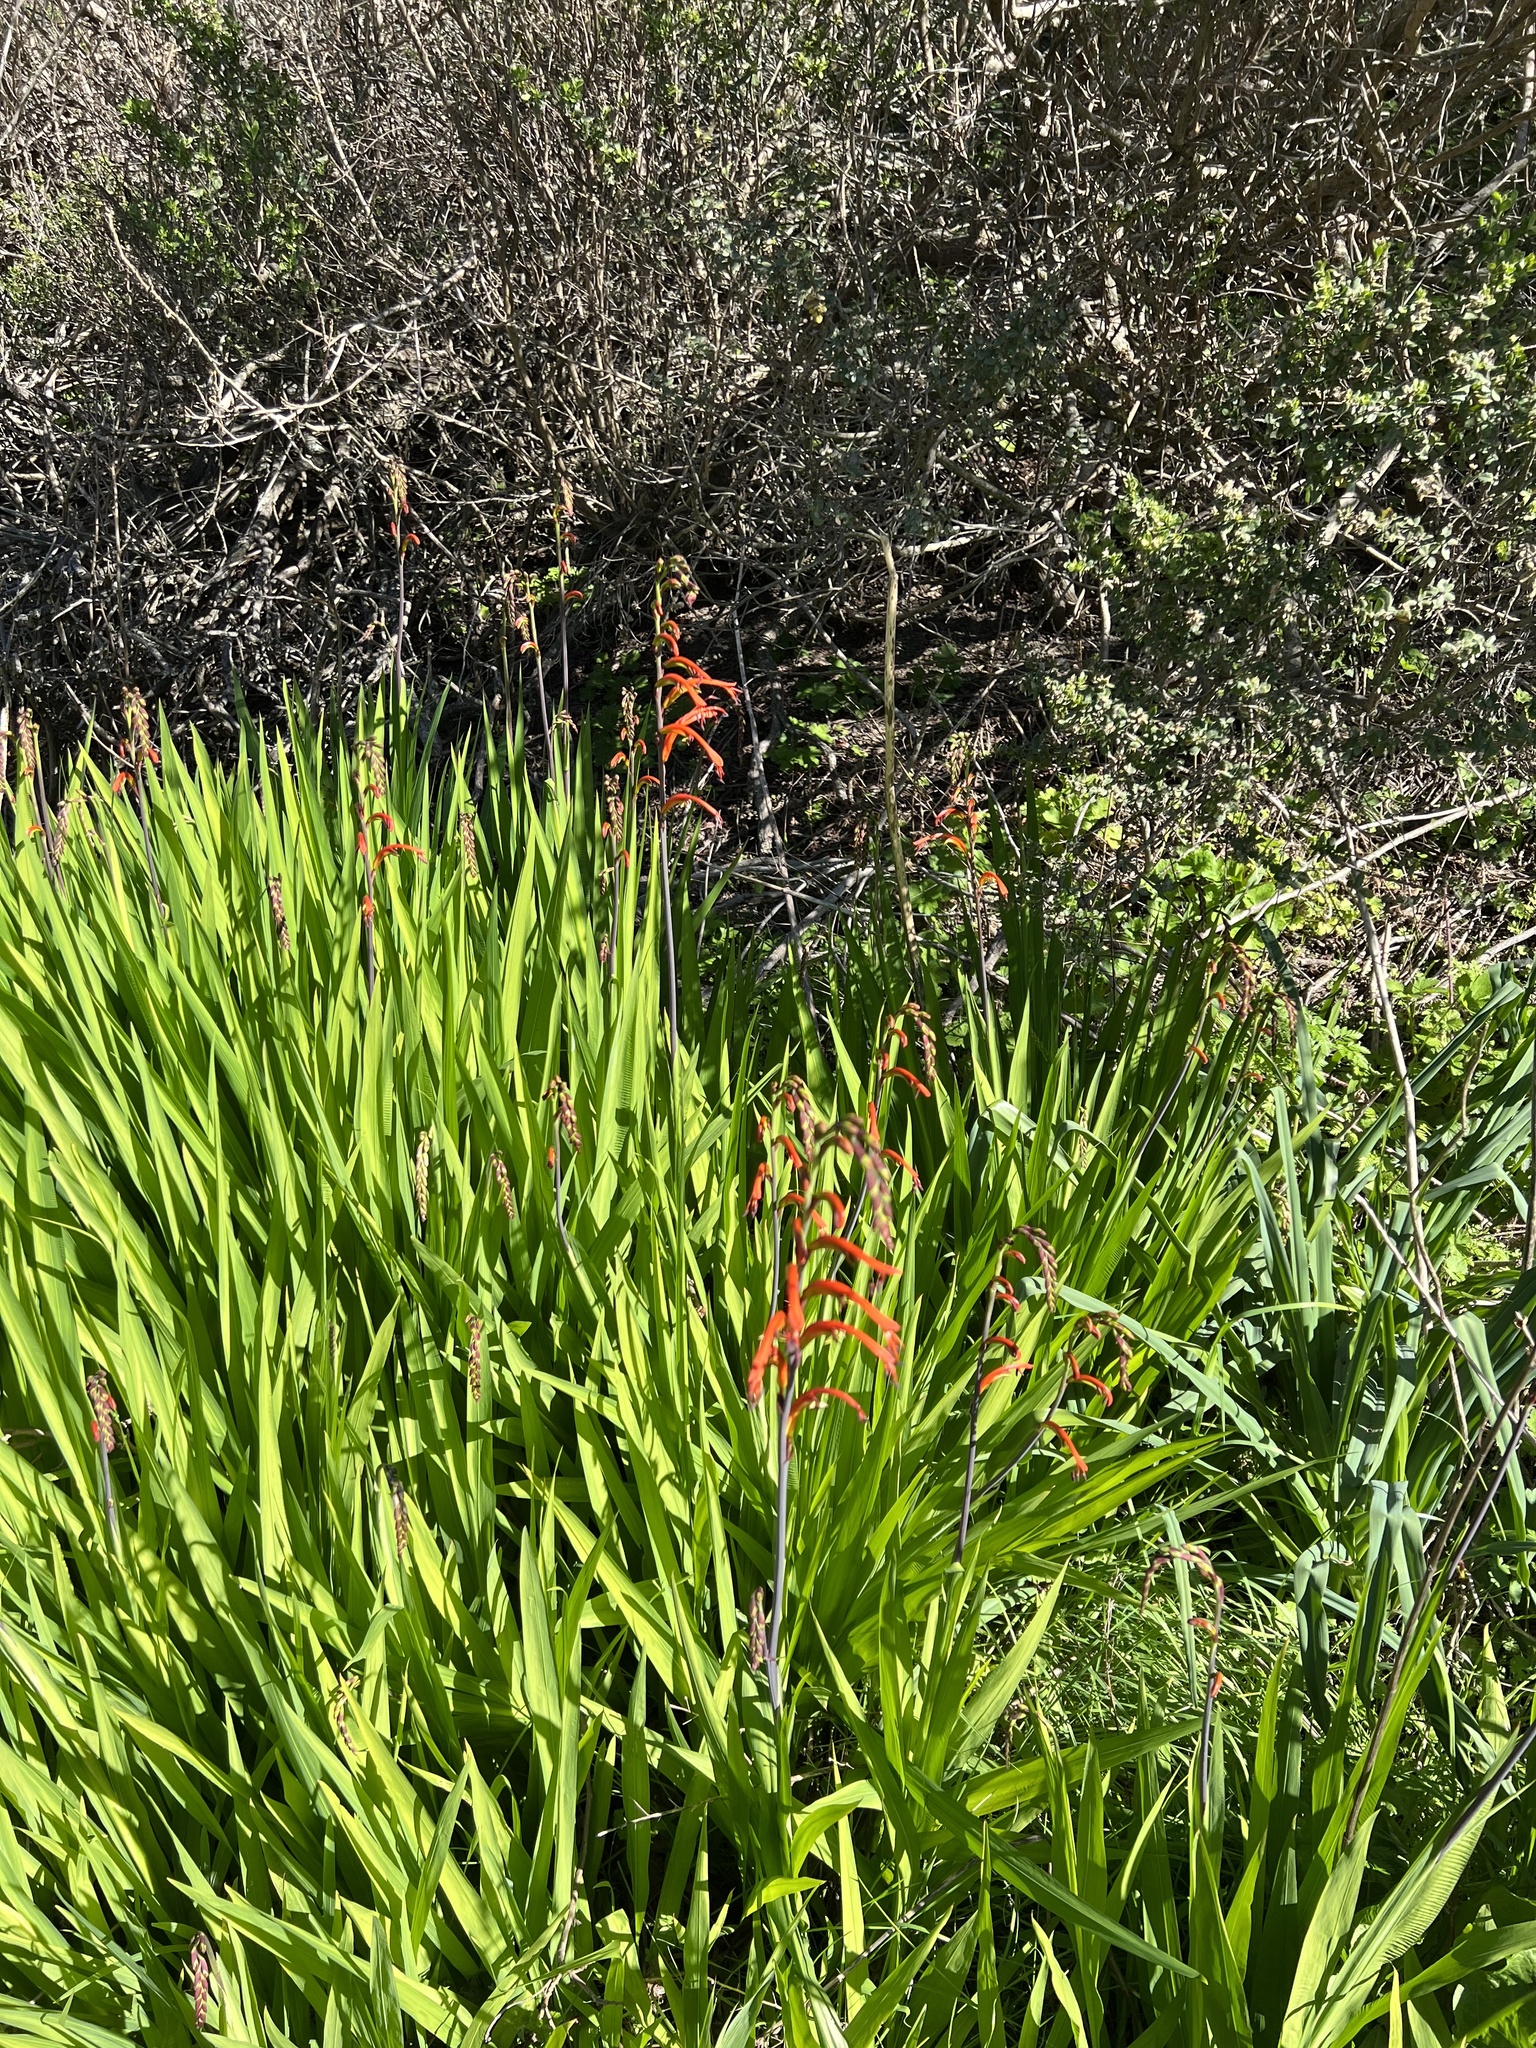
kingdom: Plantae
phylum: Tracheophyta
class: Liliopsida
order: Asparagales
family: Iridaceae
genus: Chasmanthe
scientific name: Chasmanthe bicolor
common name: Bicolor cobra lily
